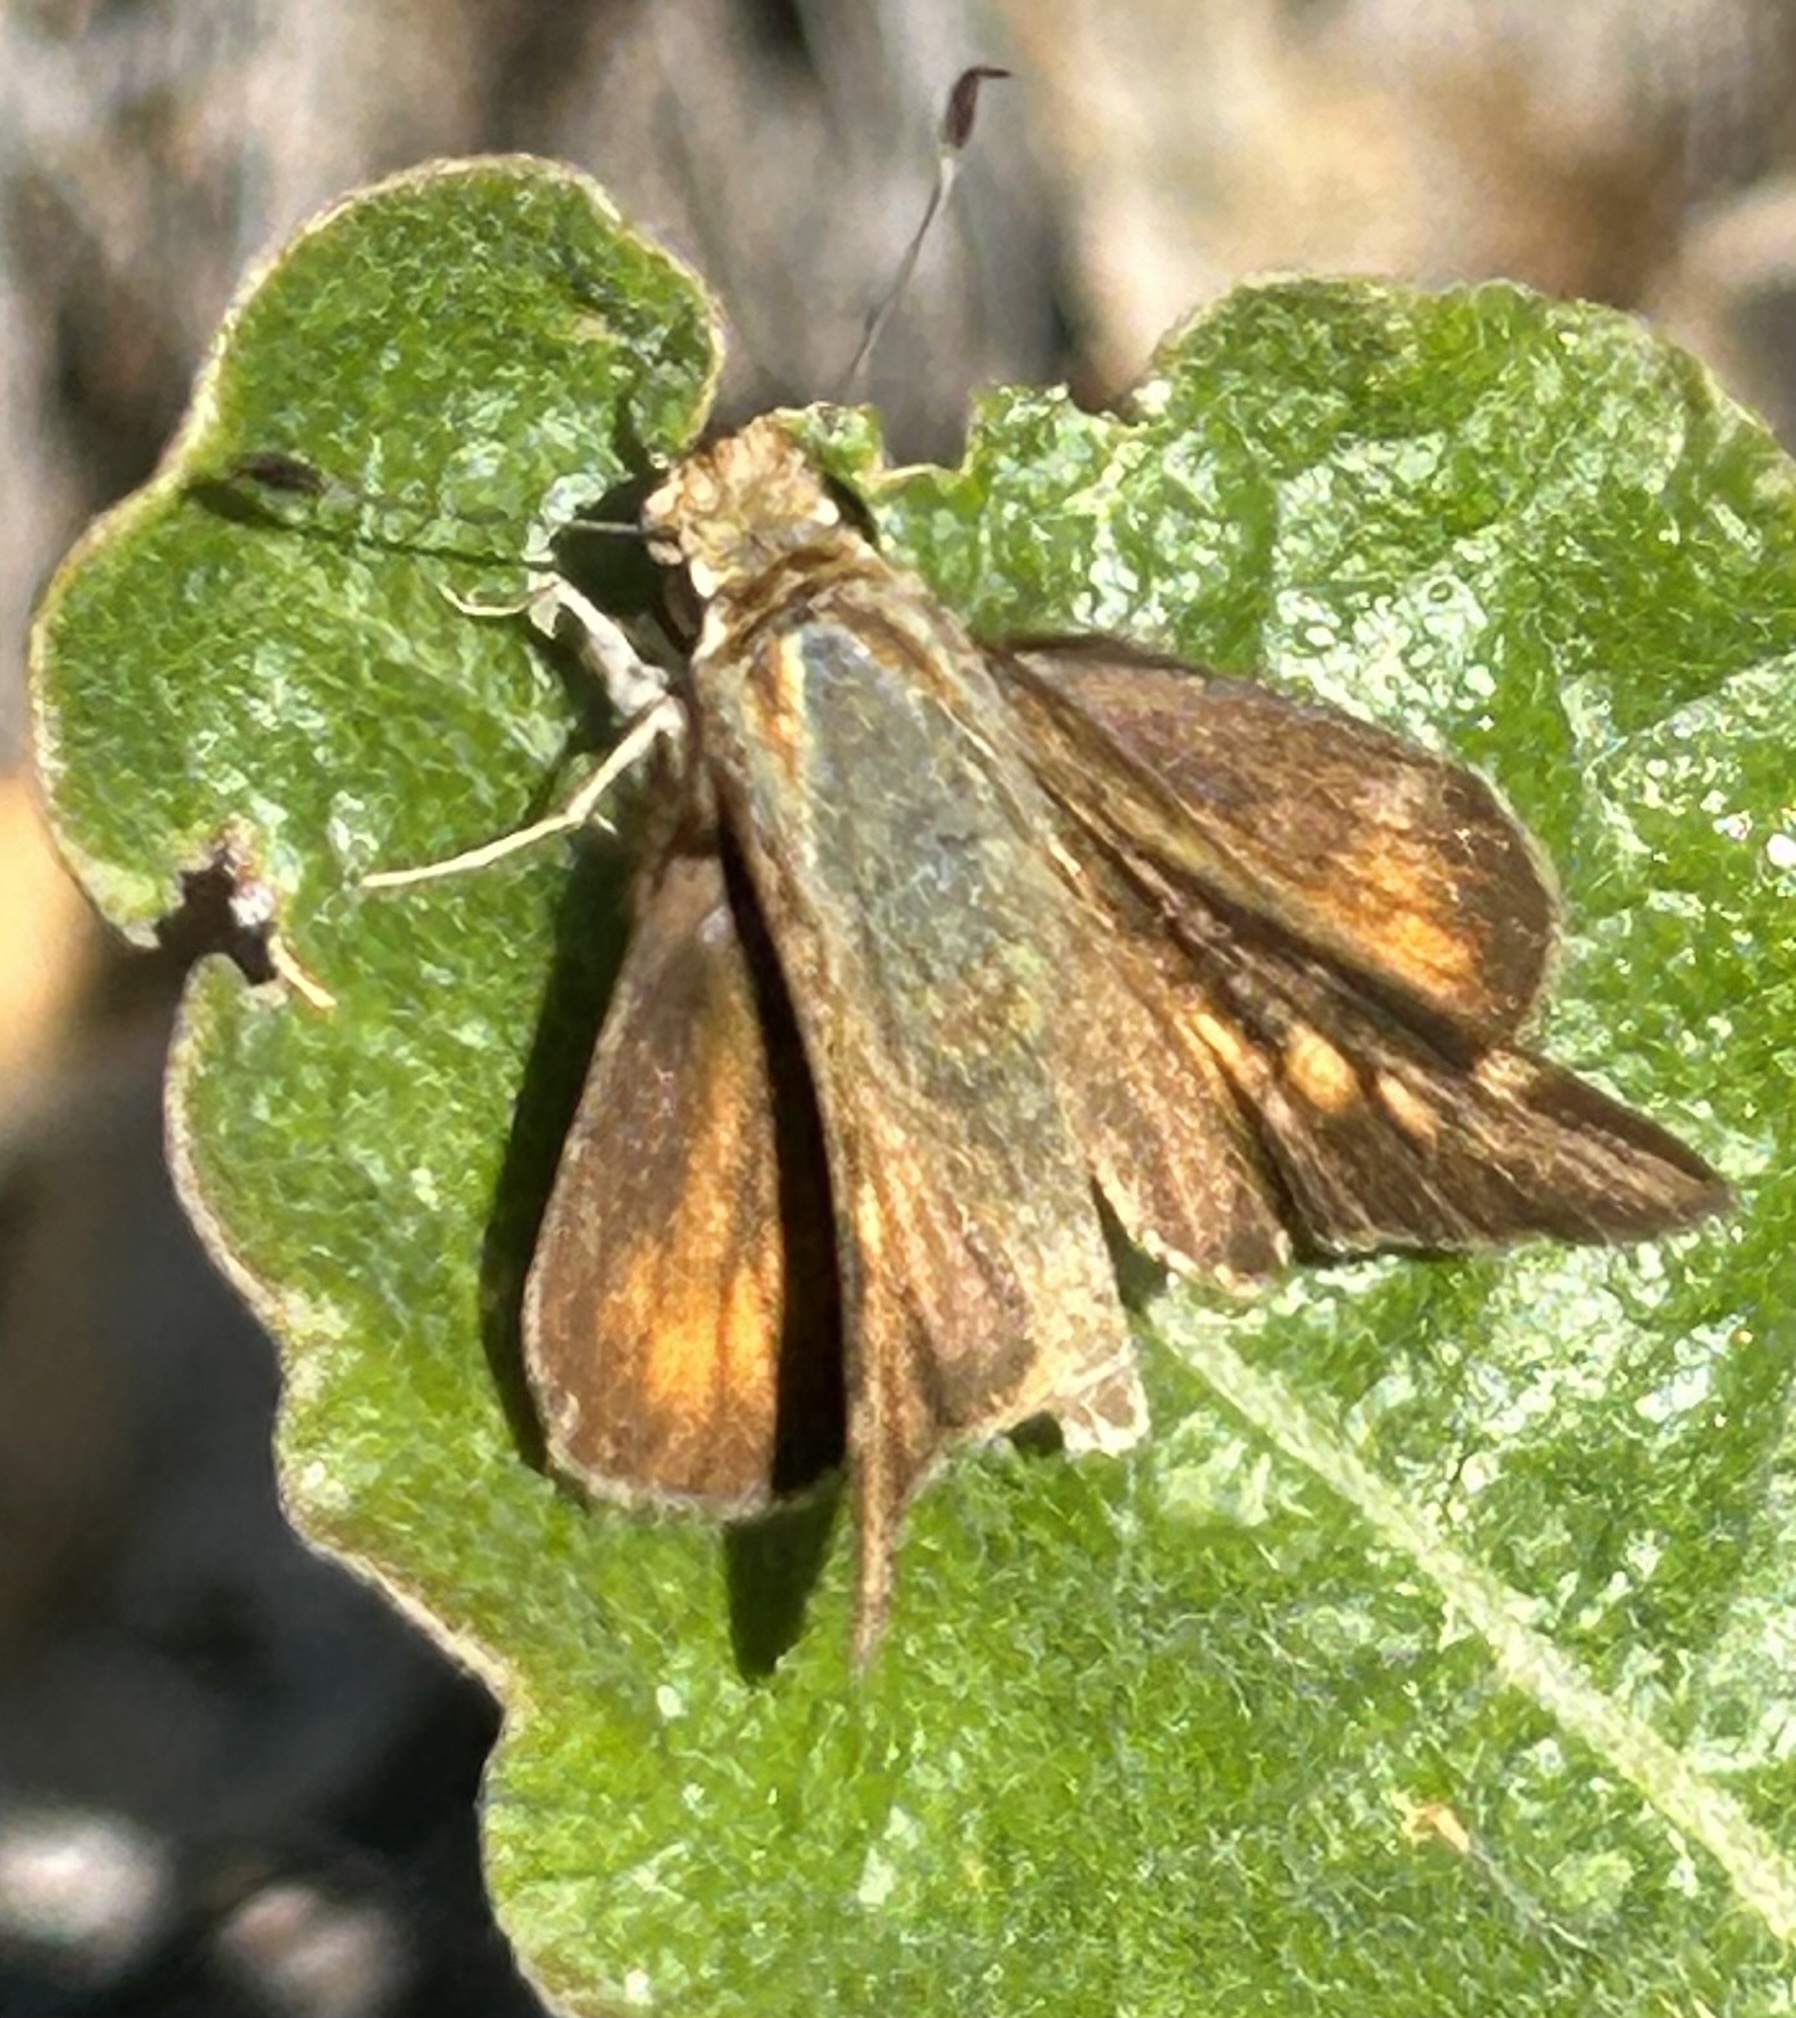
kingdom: Animalia
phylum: Arthropoda
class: Insecta
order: Lepidoptera
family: Hesperiidae
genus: Lon
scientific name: Lon melane
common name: Umber skipper
